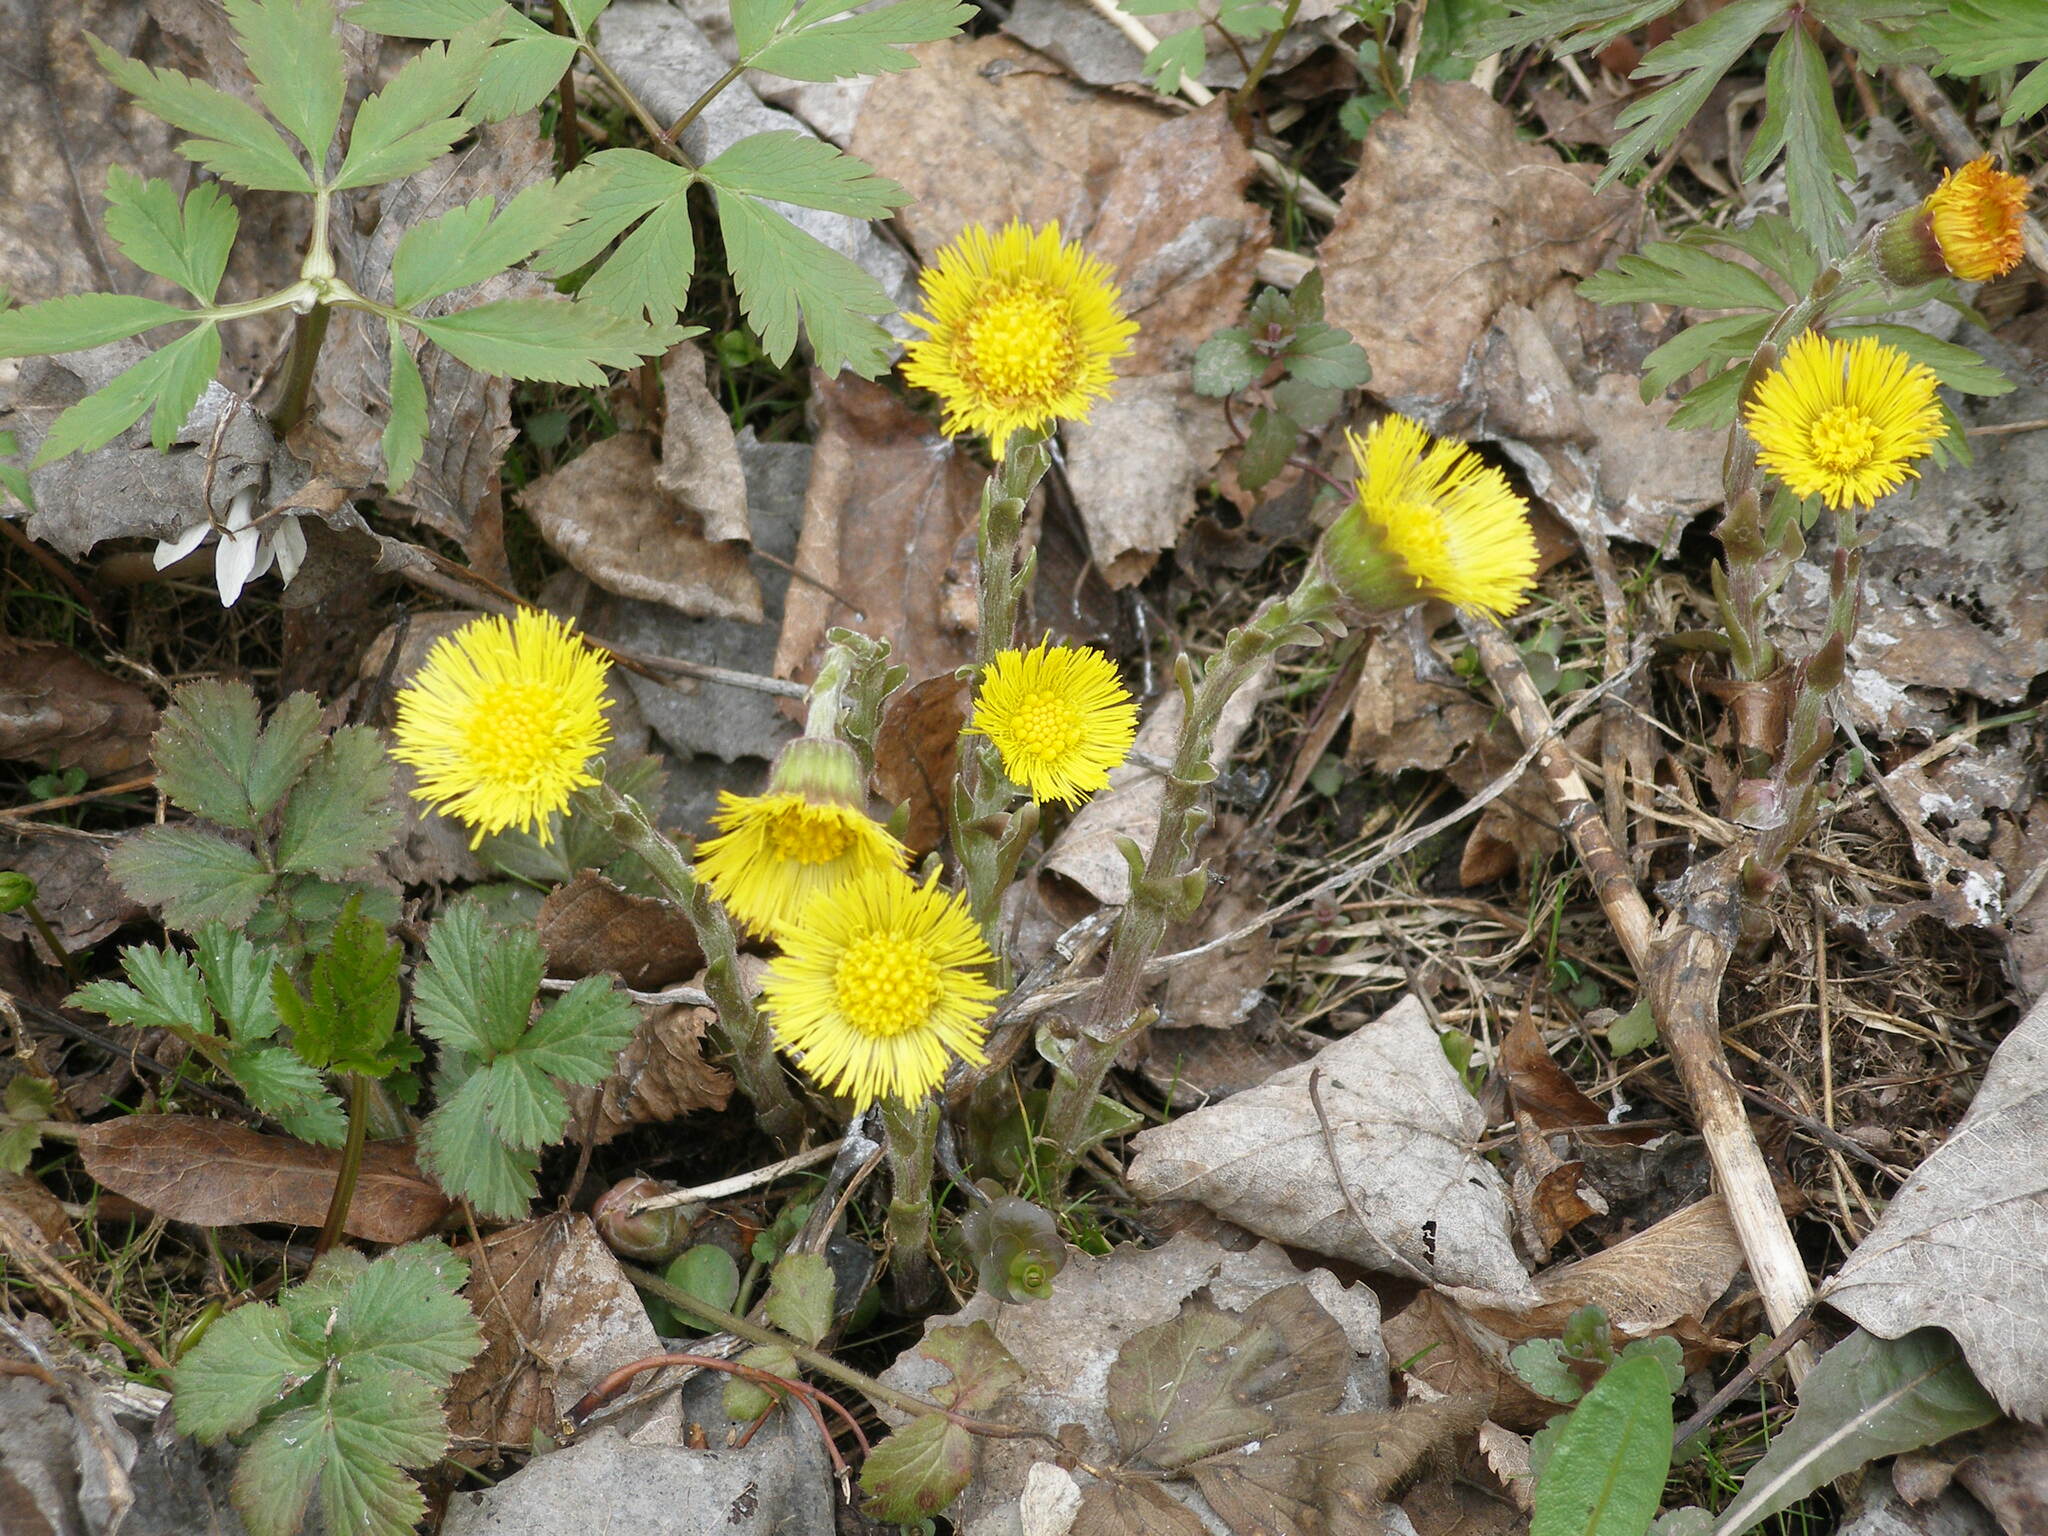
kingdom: Plantae
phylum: Tracheophyta
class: Magnoliopsida
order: Asterales
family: Asteraceae
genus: Tussilago
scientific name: Tussilago farfara
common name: Coltsfoot
